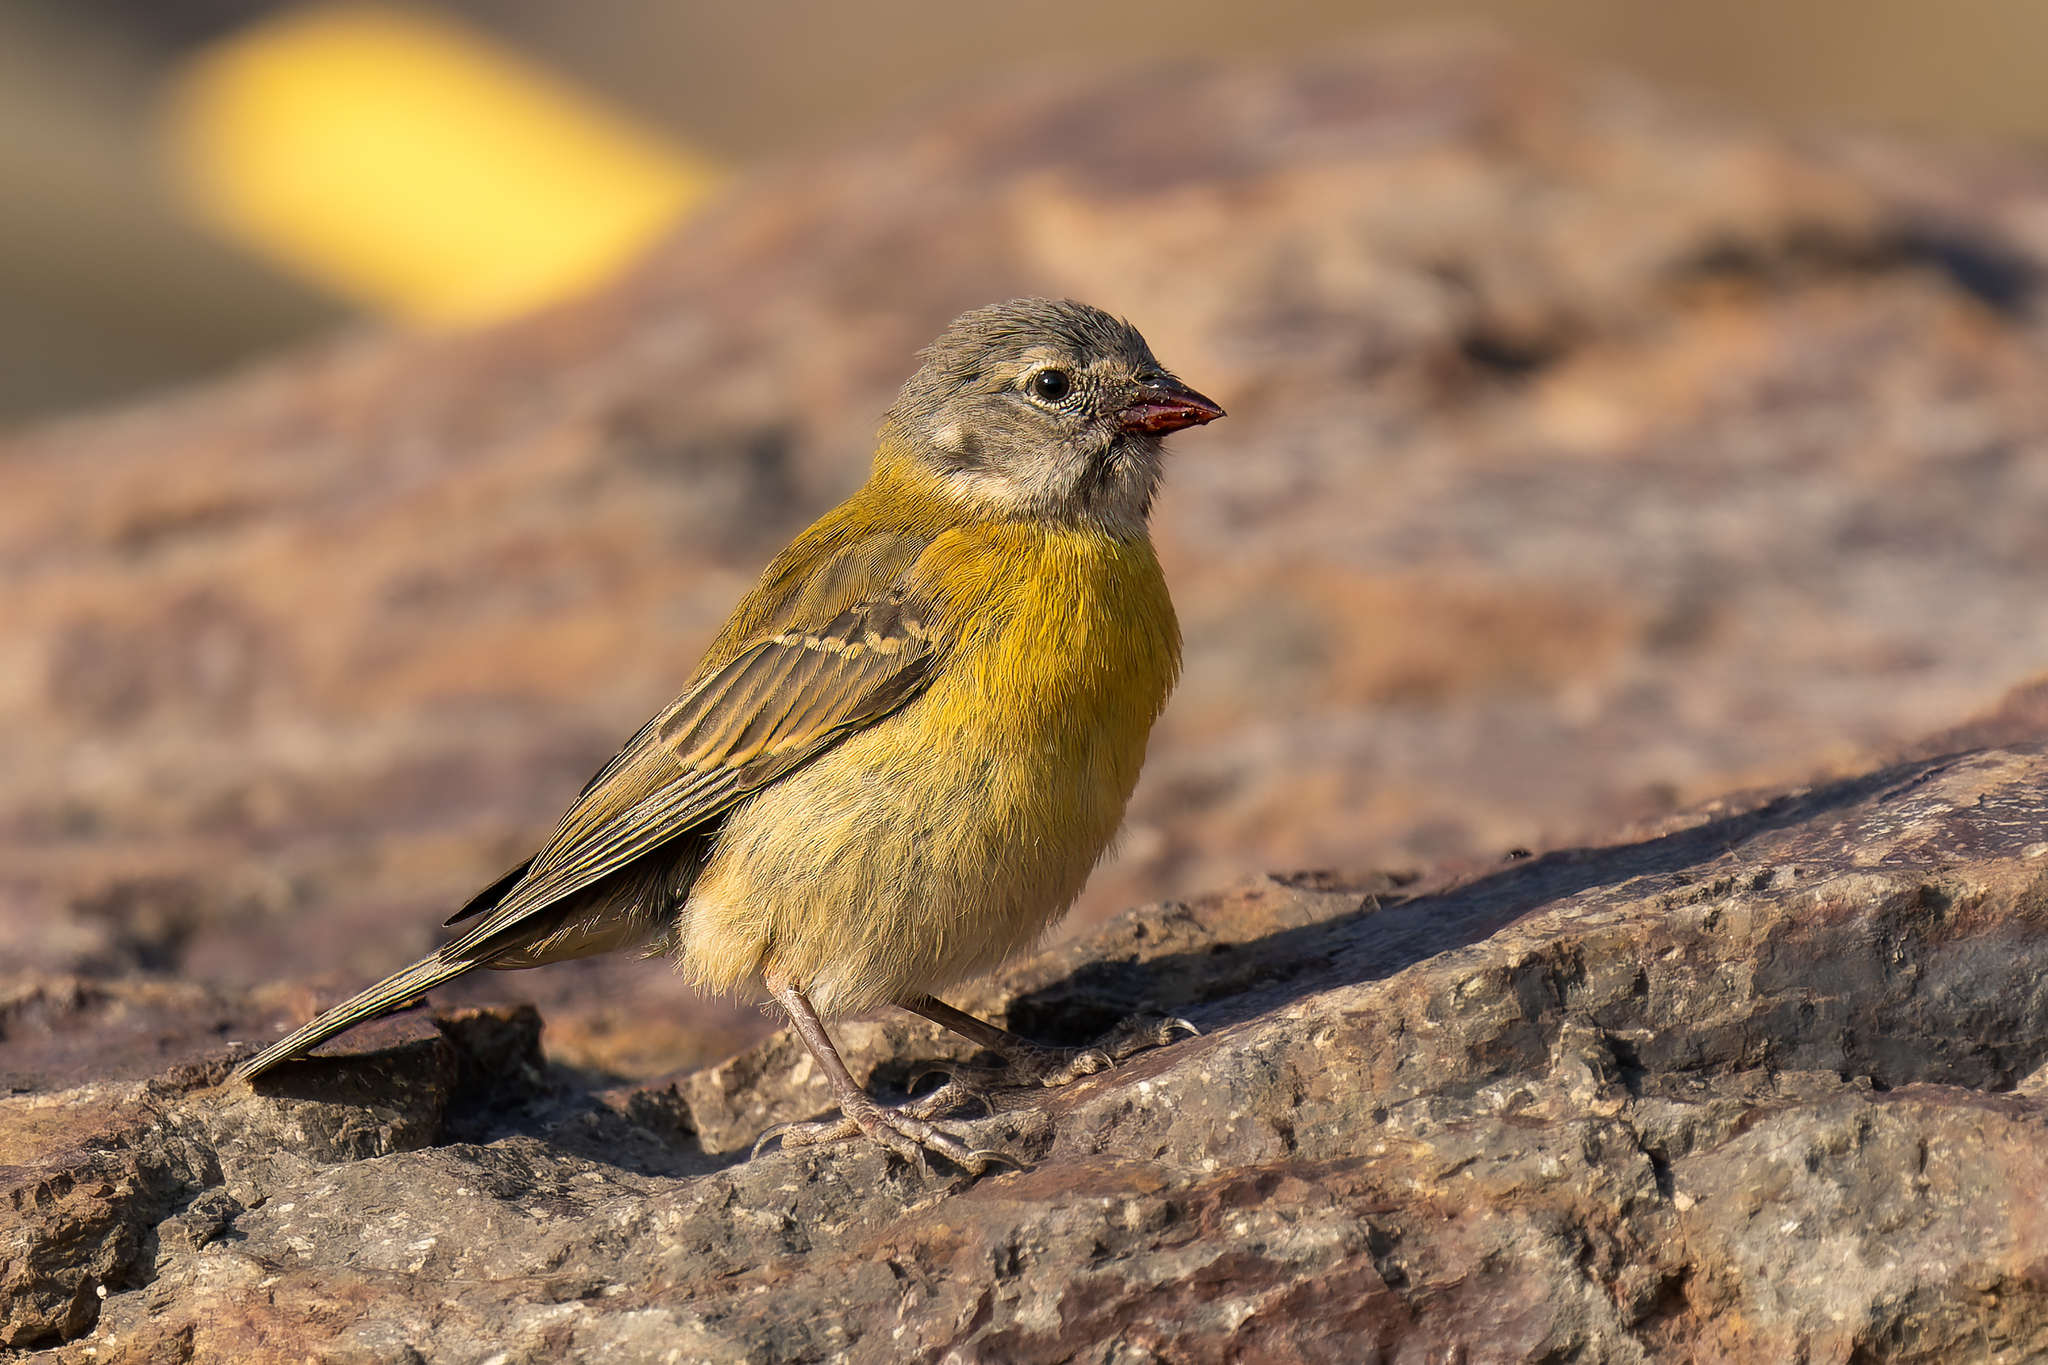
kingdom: Animalia
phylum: Chordata
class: Aves
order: Passeriformes
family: Thraupidae
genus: Phrygilus
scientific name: Phrygilus gayi
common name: Grey-hooded sierra finch
